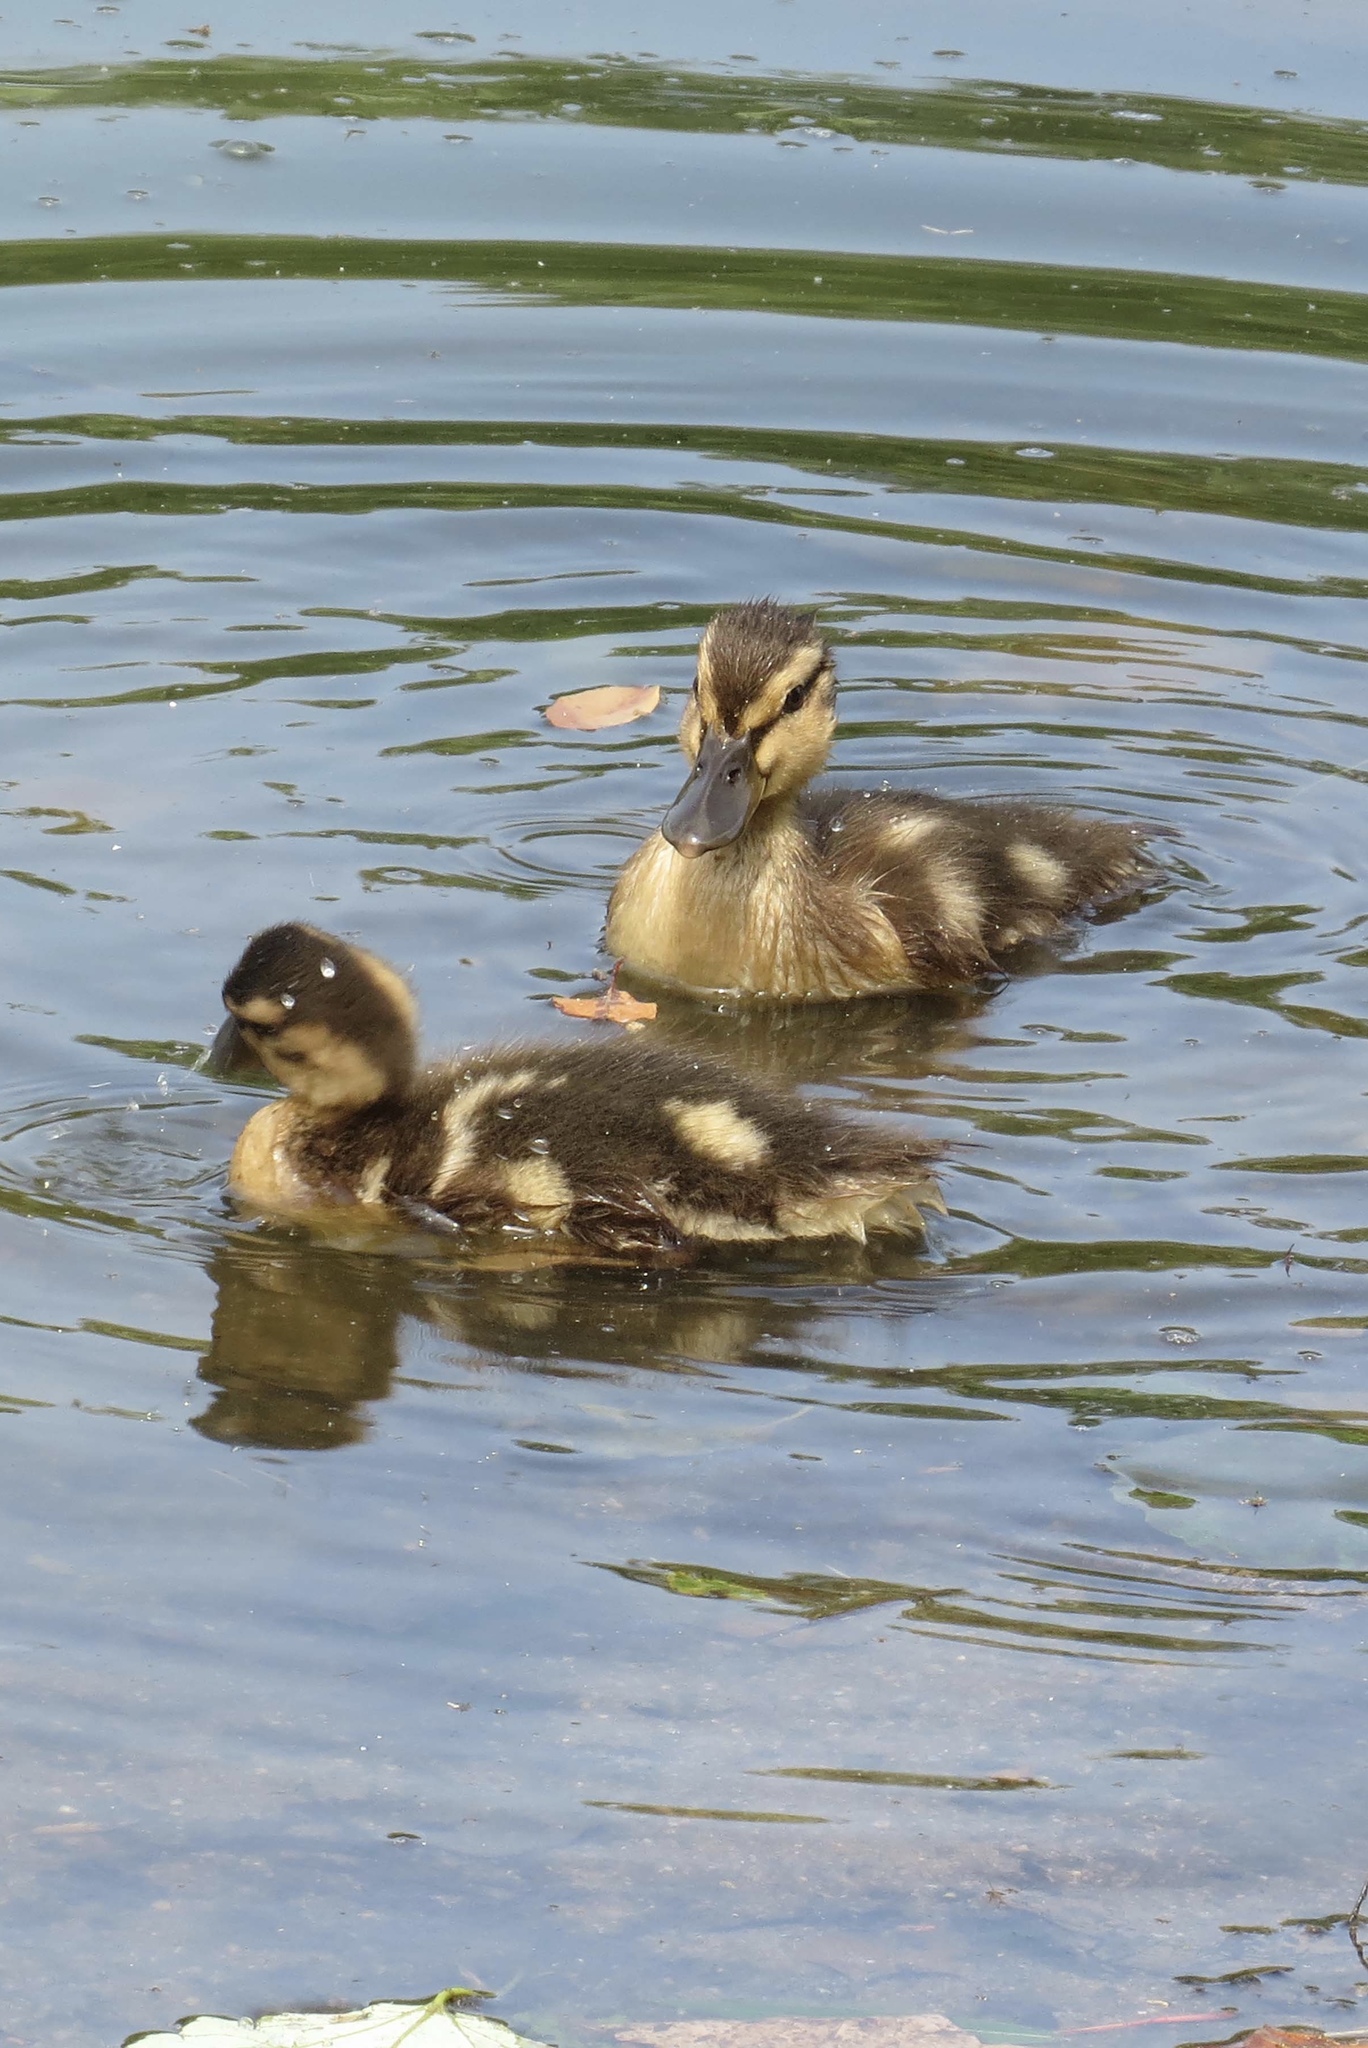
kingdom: Animalia
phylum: Chordata
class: Aves
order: Anseriformes
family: Anatidae
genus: Anas
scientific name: Anas platyrhynchos
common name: Mallard
